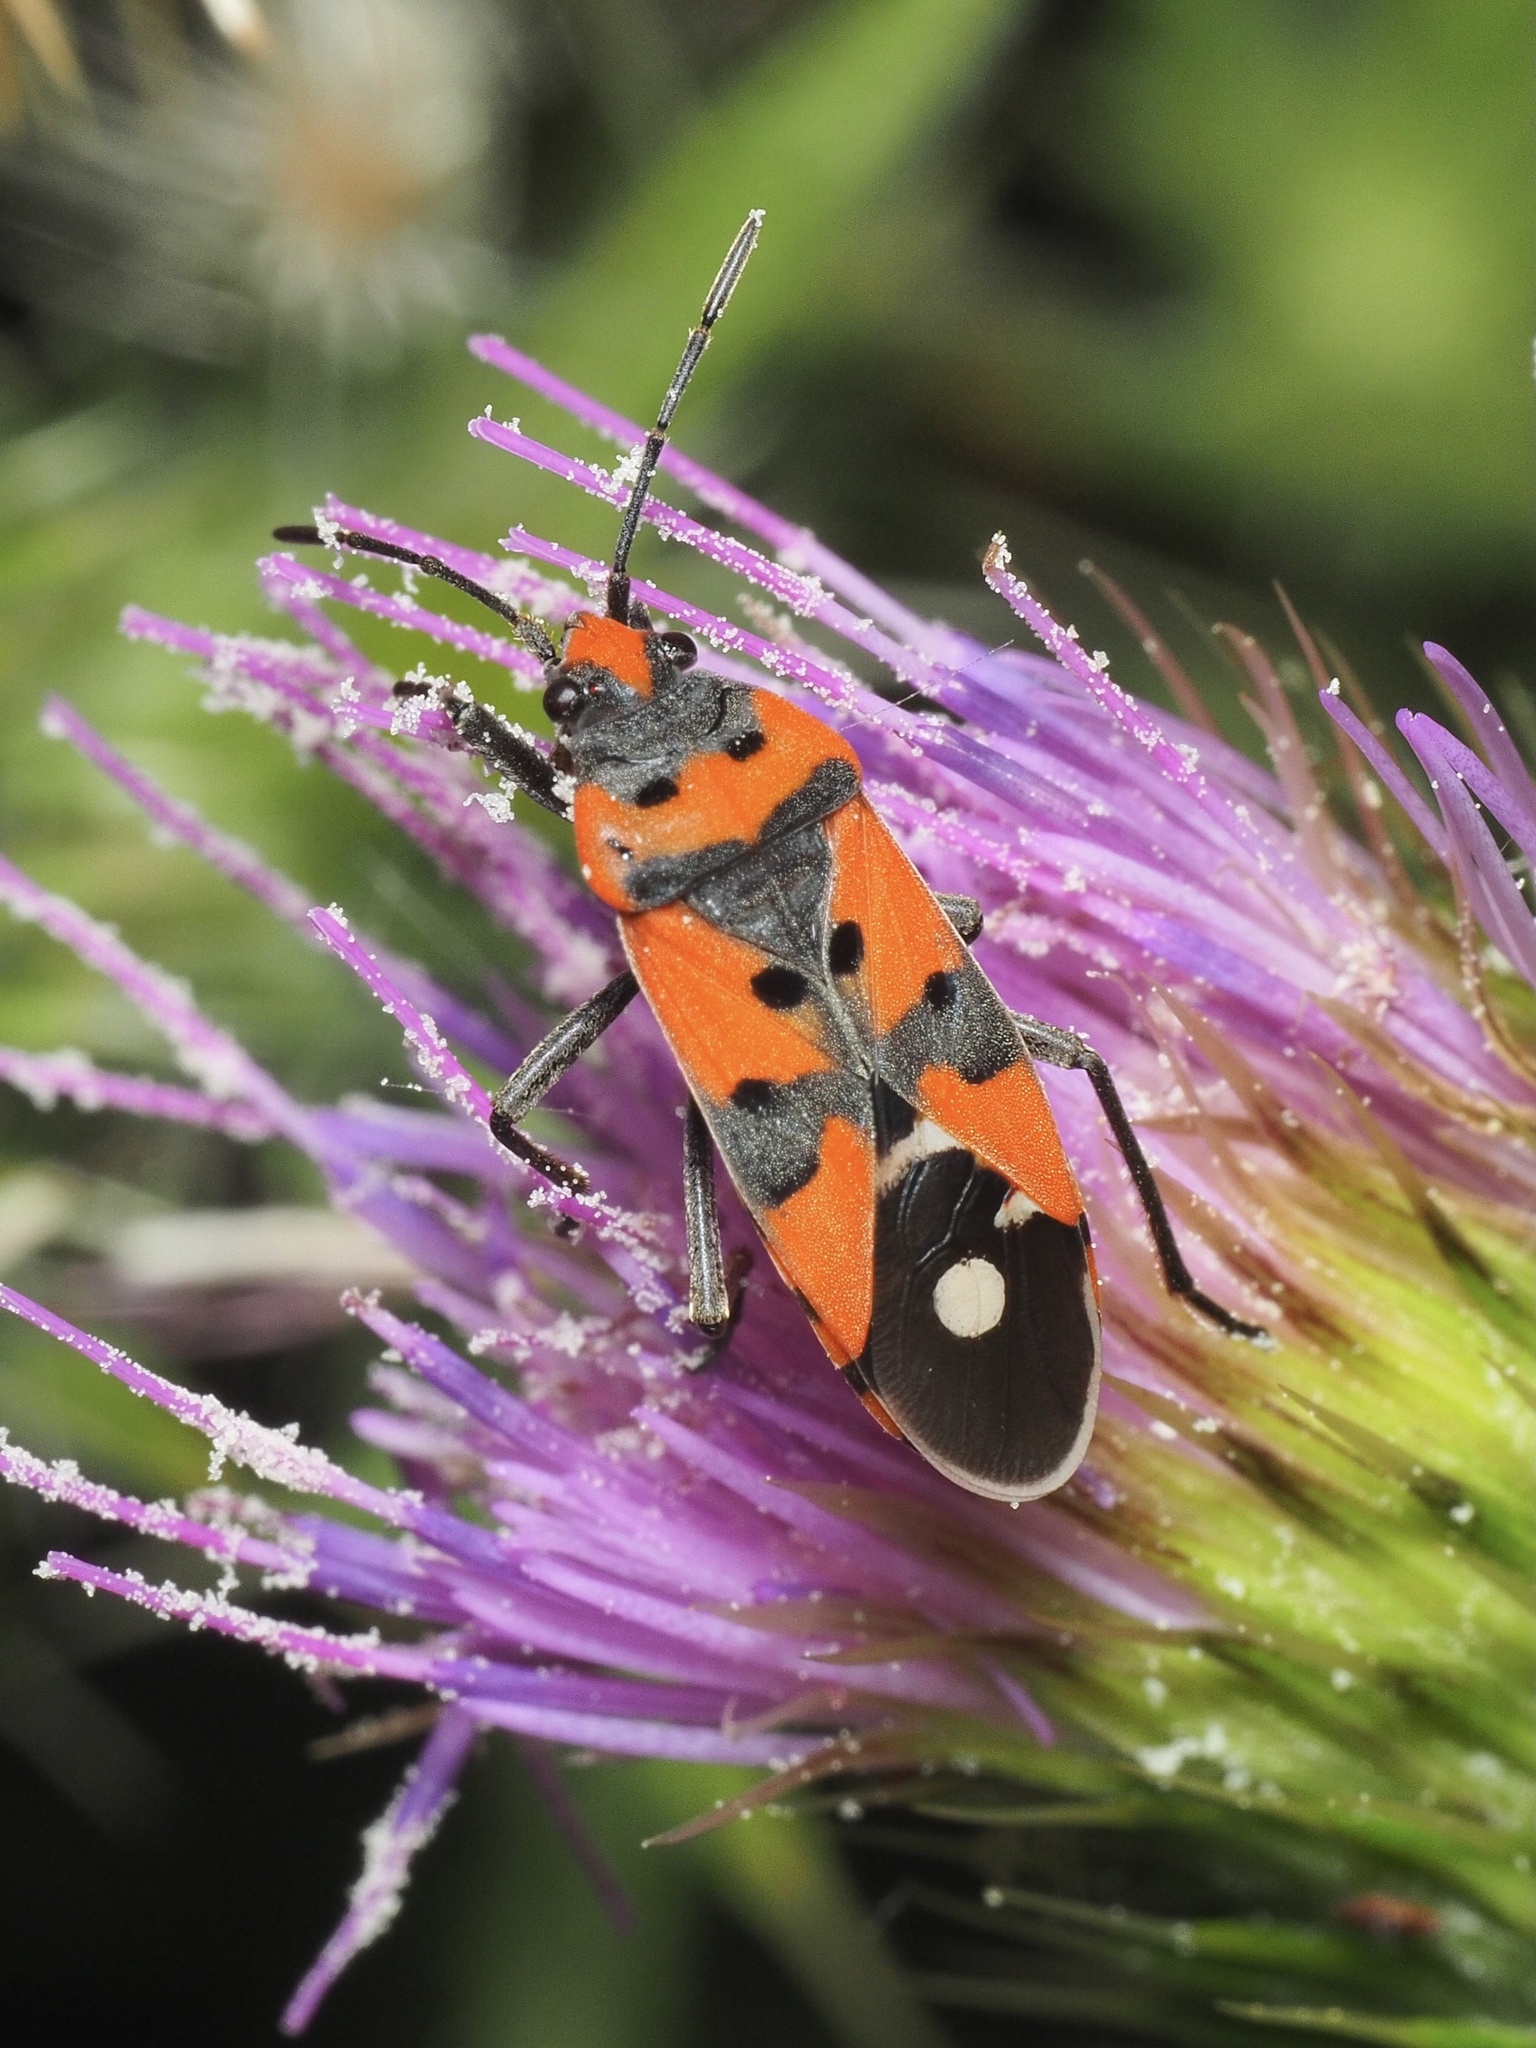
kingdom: Animalia
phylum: Arthropoda
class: Insecta
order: Hemiptera
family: Lygaeidae
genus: Lygaeus
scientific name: Lygaeus equestris
